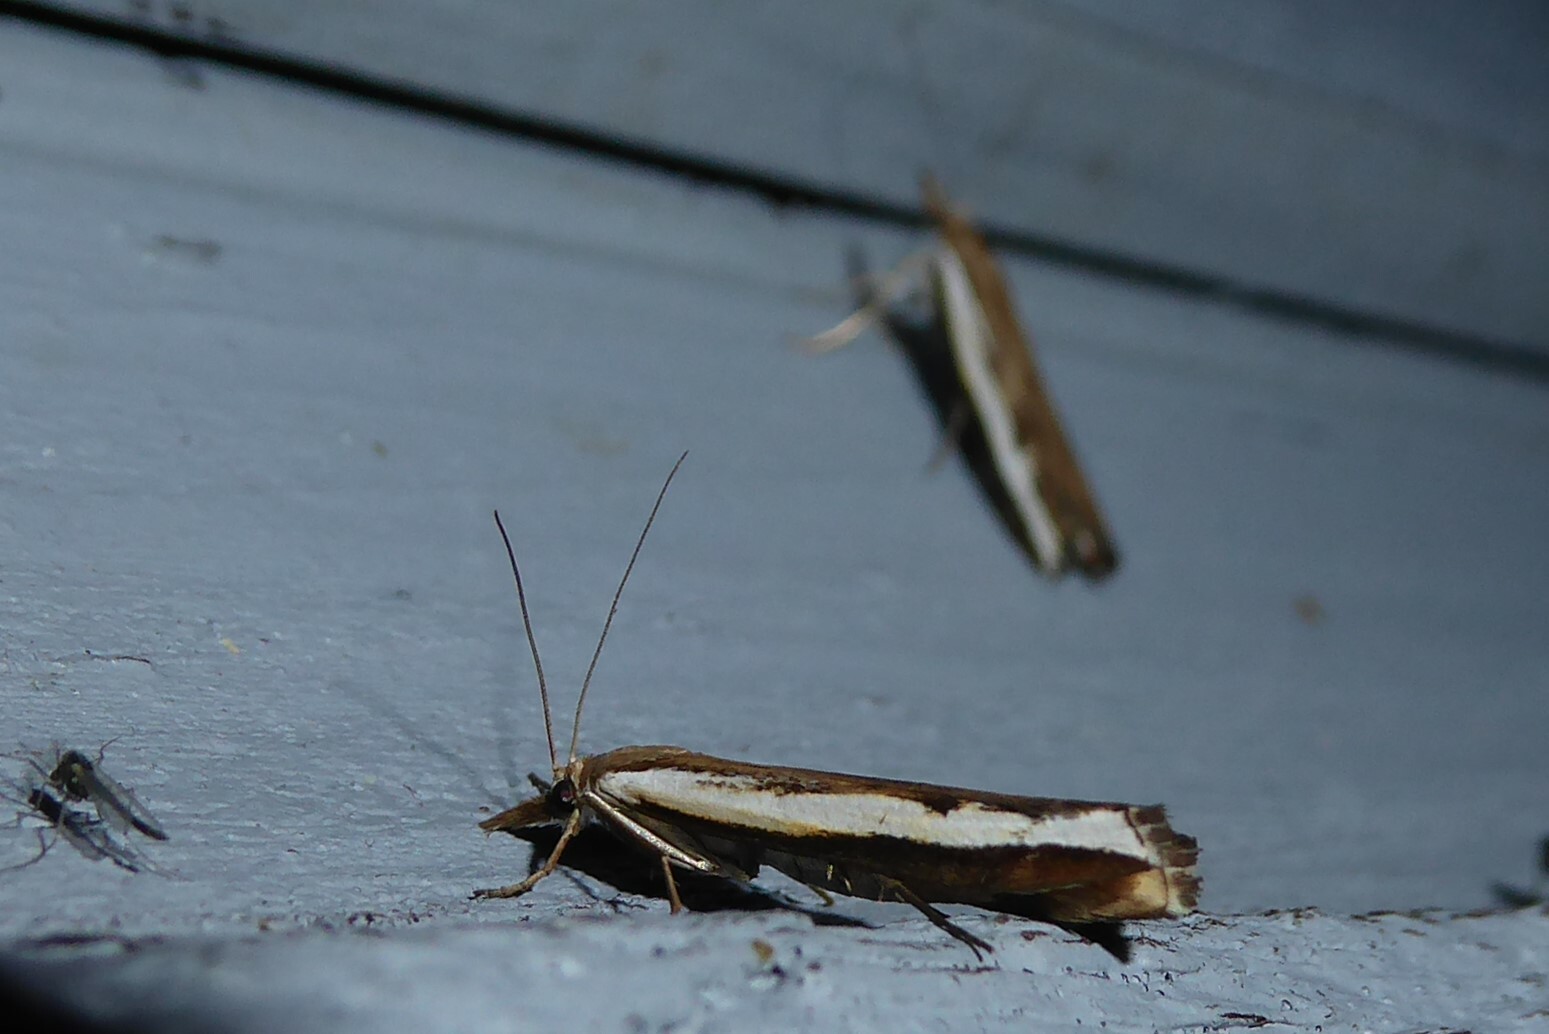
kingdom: Animalia
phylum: Arthropoda
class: Insecta
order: Lepidoptera
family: Crambidae
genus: Orocrambus
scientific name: Orocrambus flexuosellus
